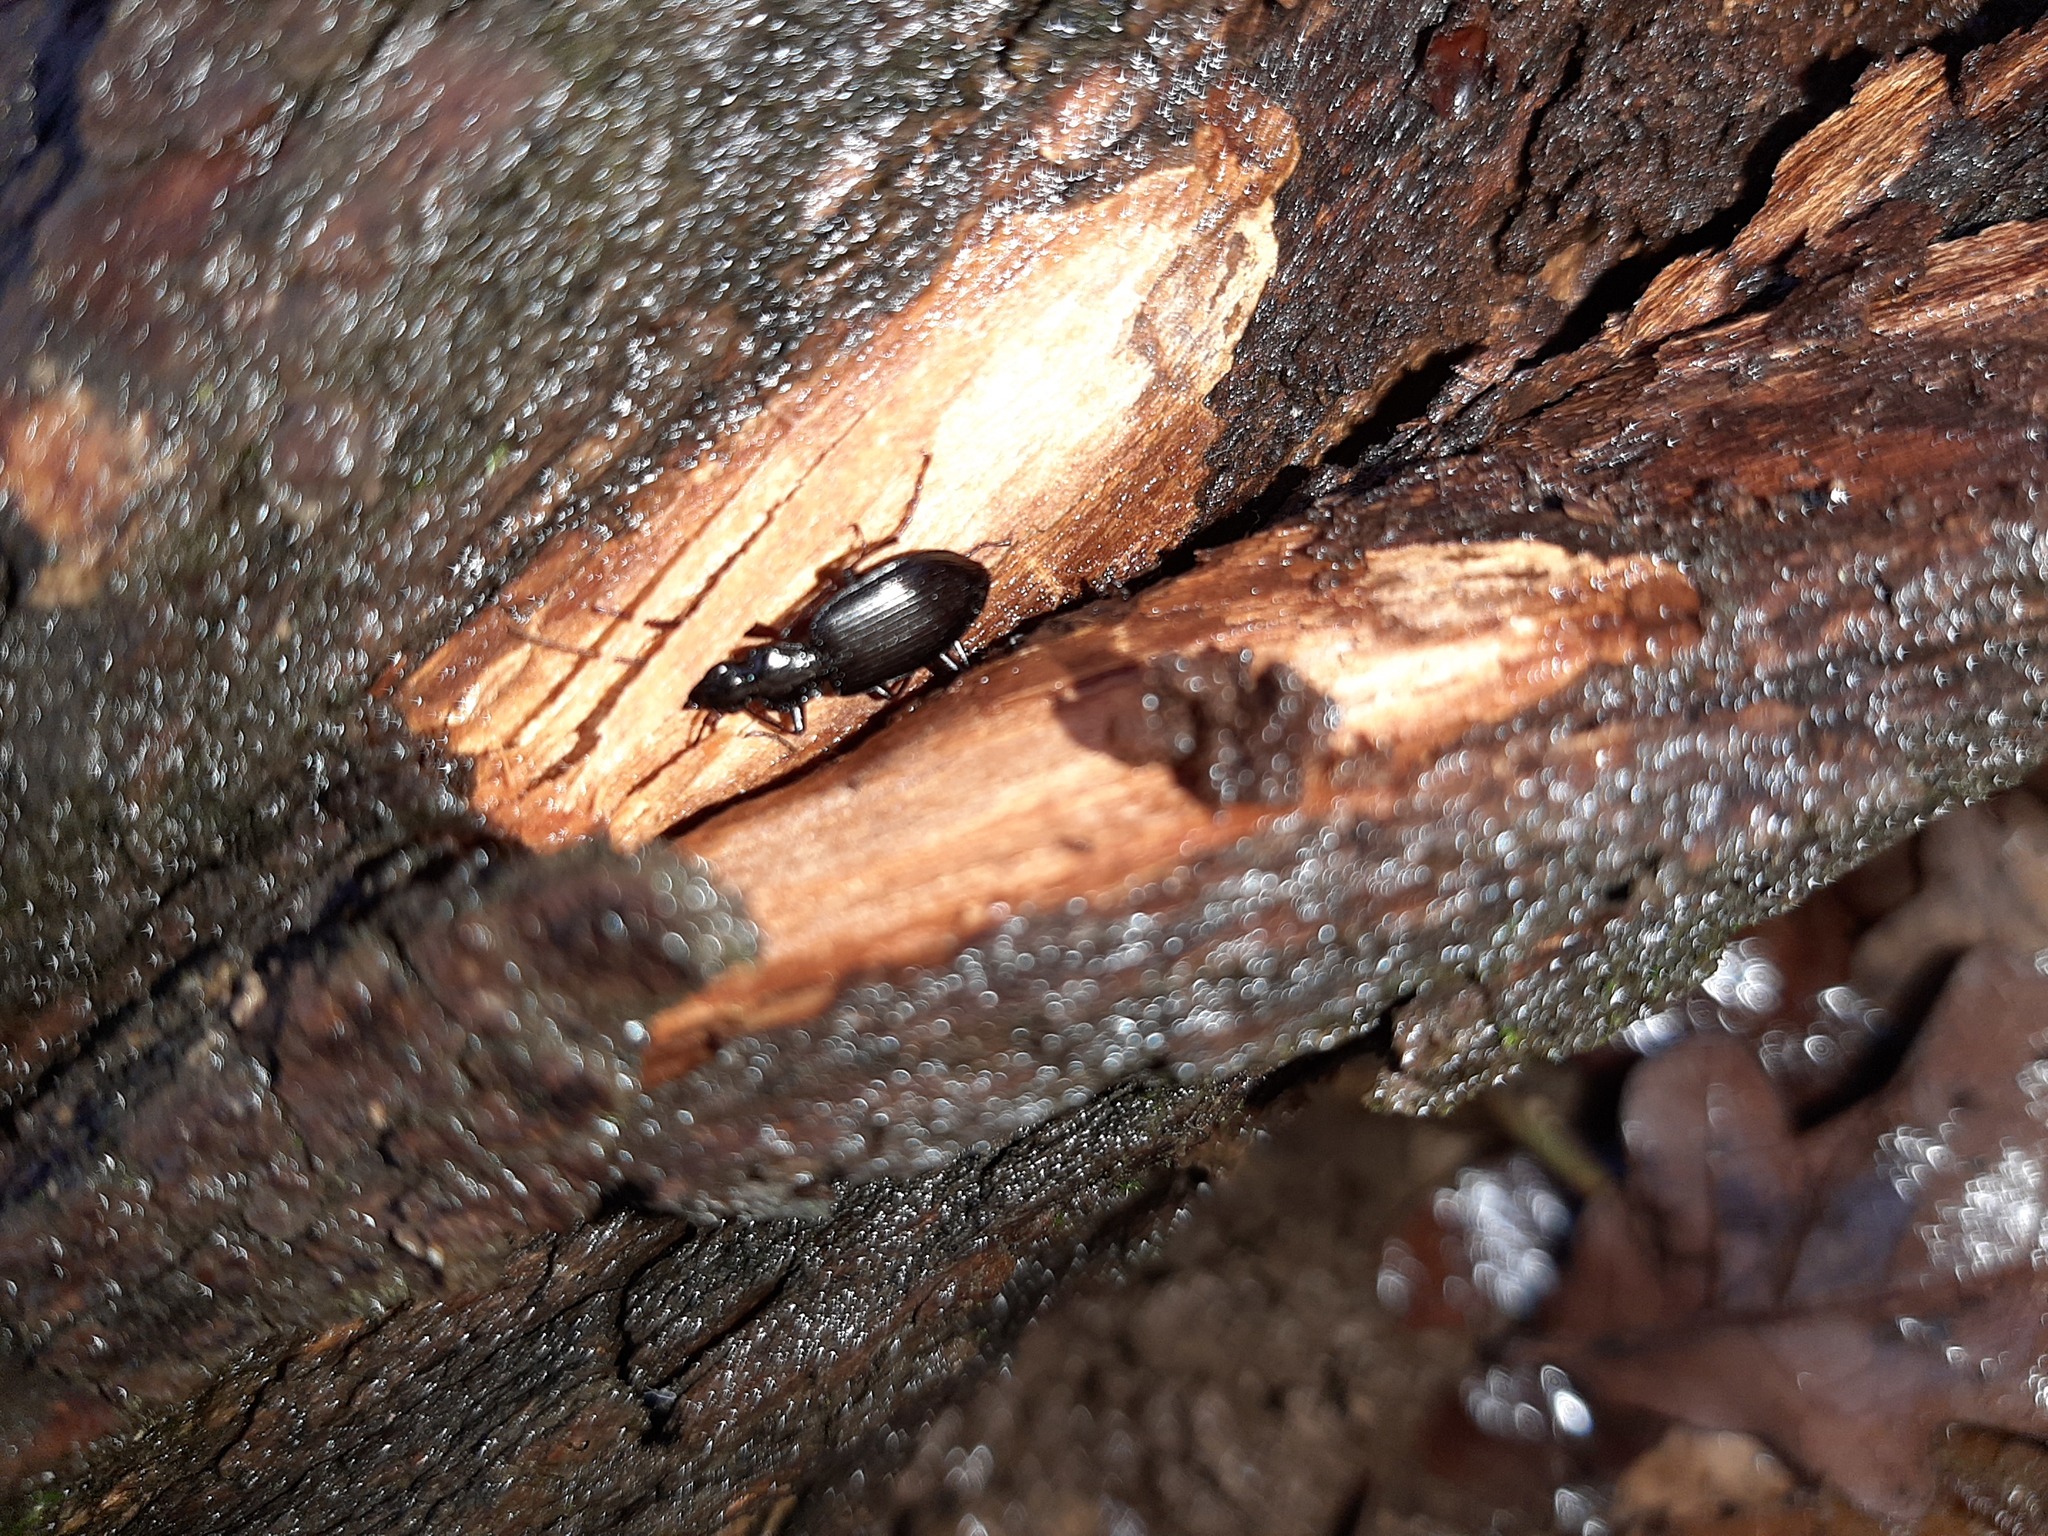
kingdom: Animalia
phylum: Arthropoda
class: Insecta
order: Coleoptera
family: Carabidae
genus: Platynus
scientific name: Platynus assimilis
